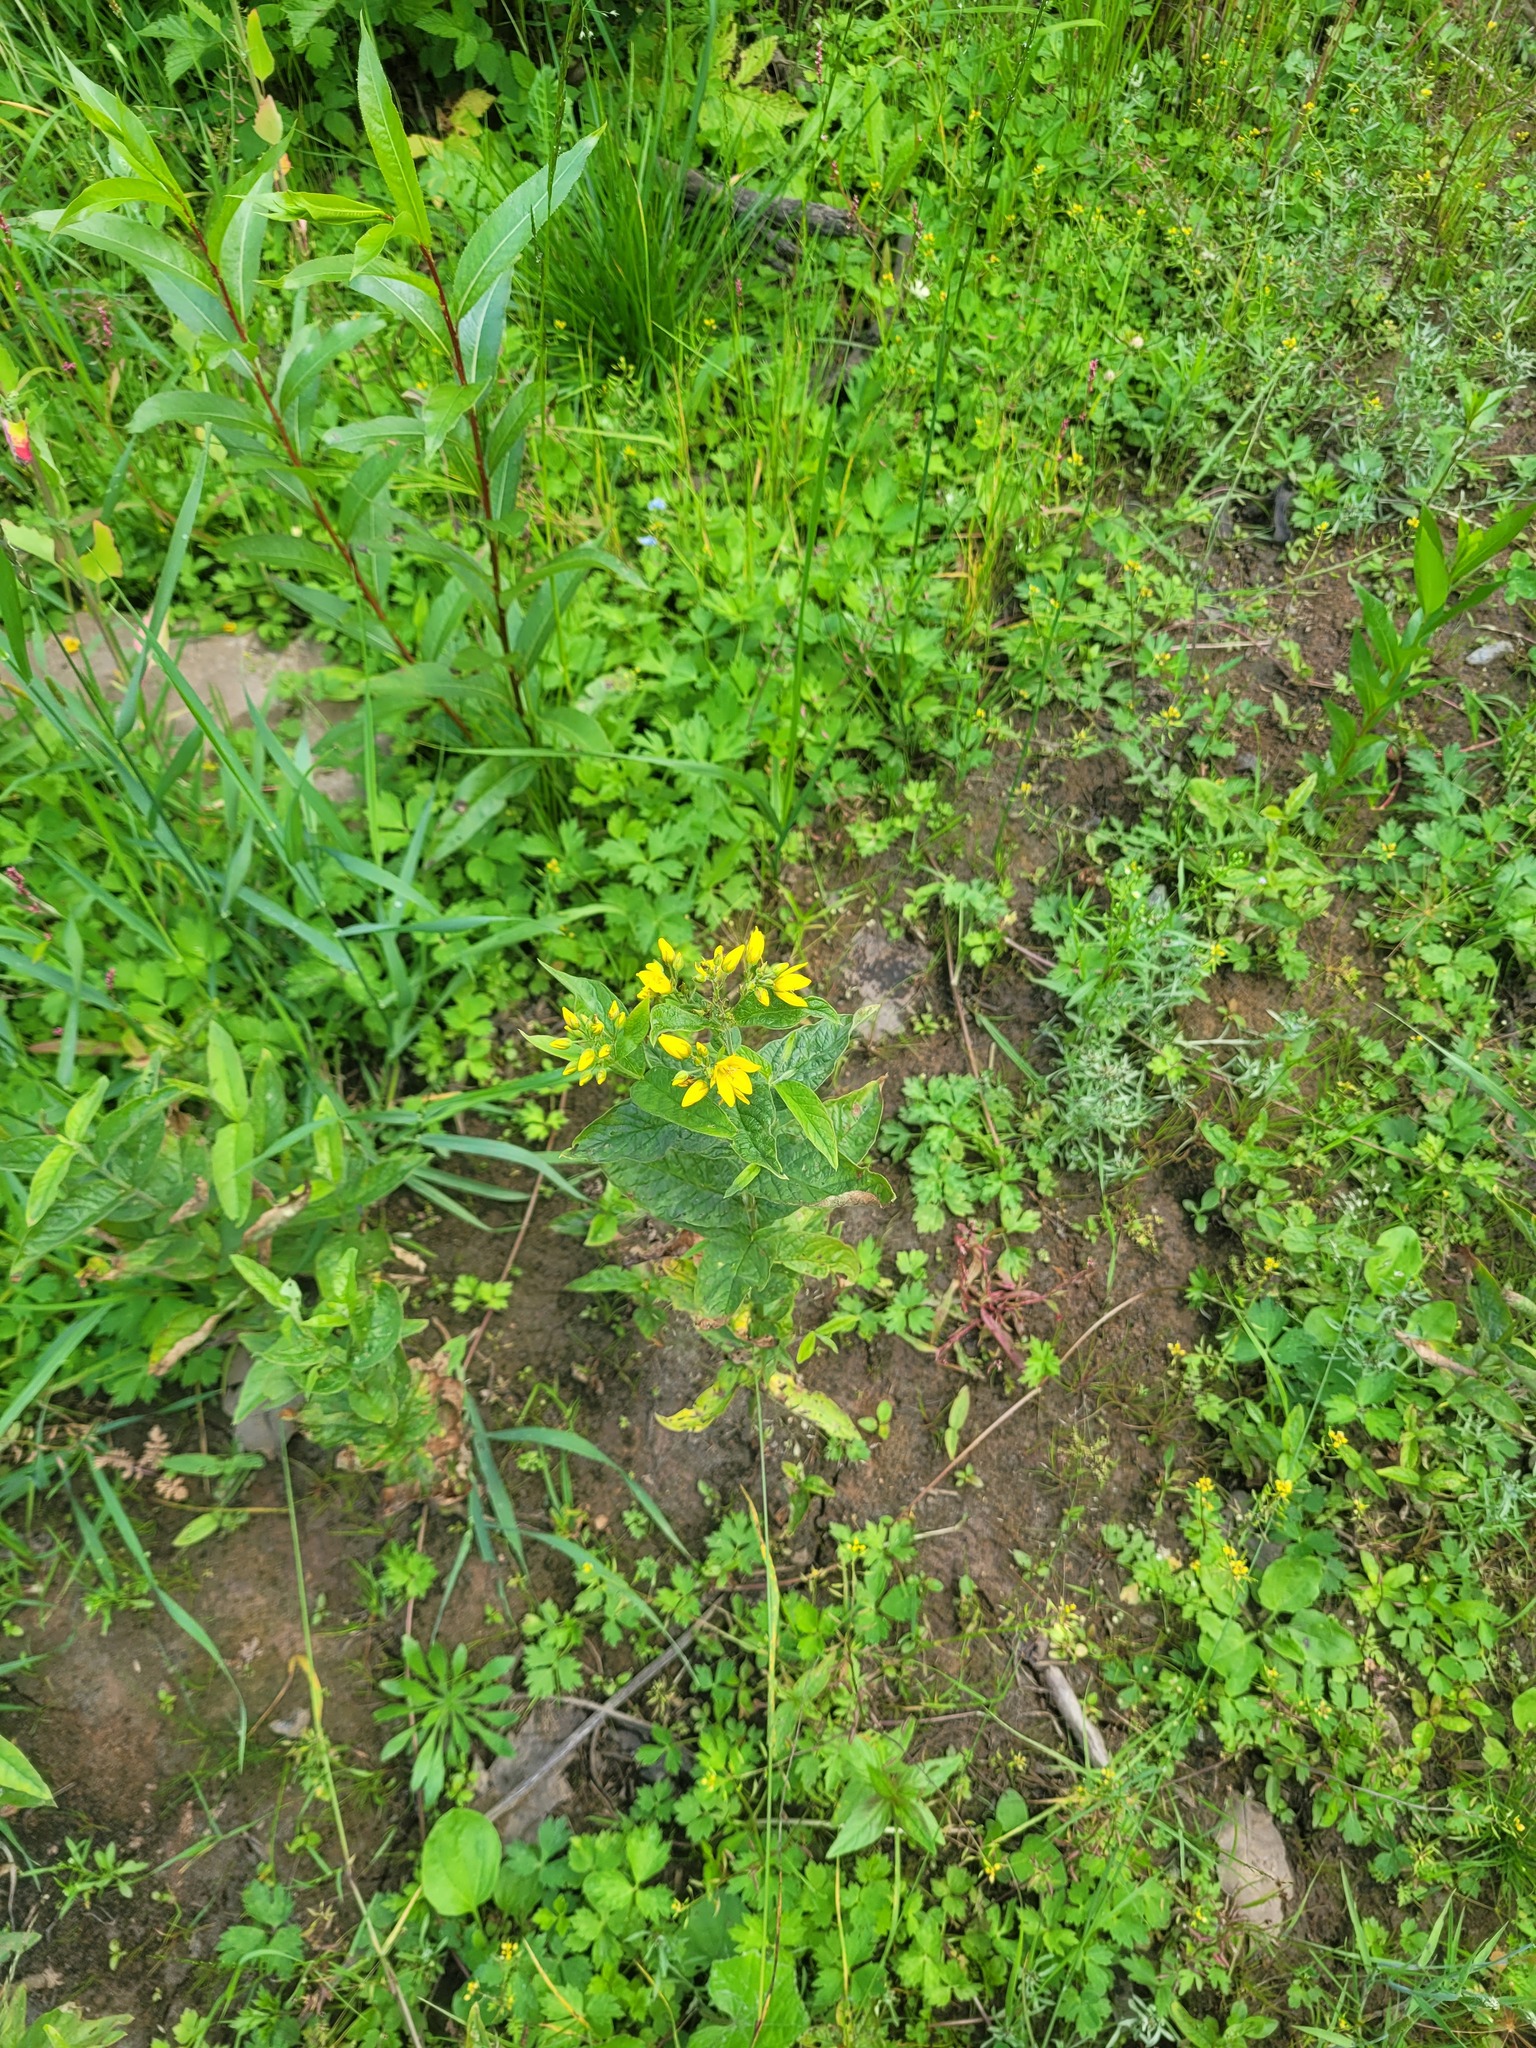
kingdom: Plantae
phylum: Tracheophyta
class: Magnoliopsida
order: Ericales
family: Primulaceae
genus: Lysimachia
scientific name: Lysimachia vulgaris
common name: Yellow loosestrife
